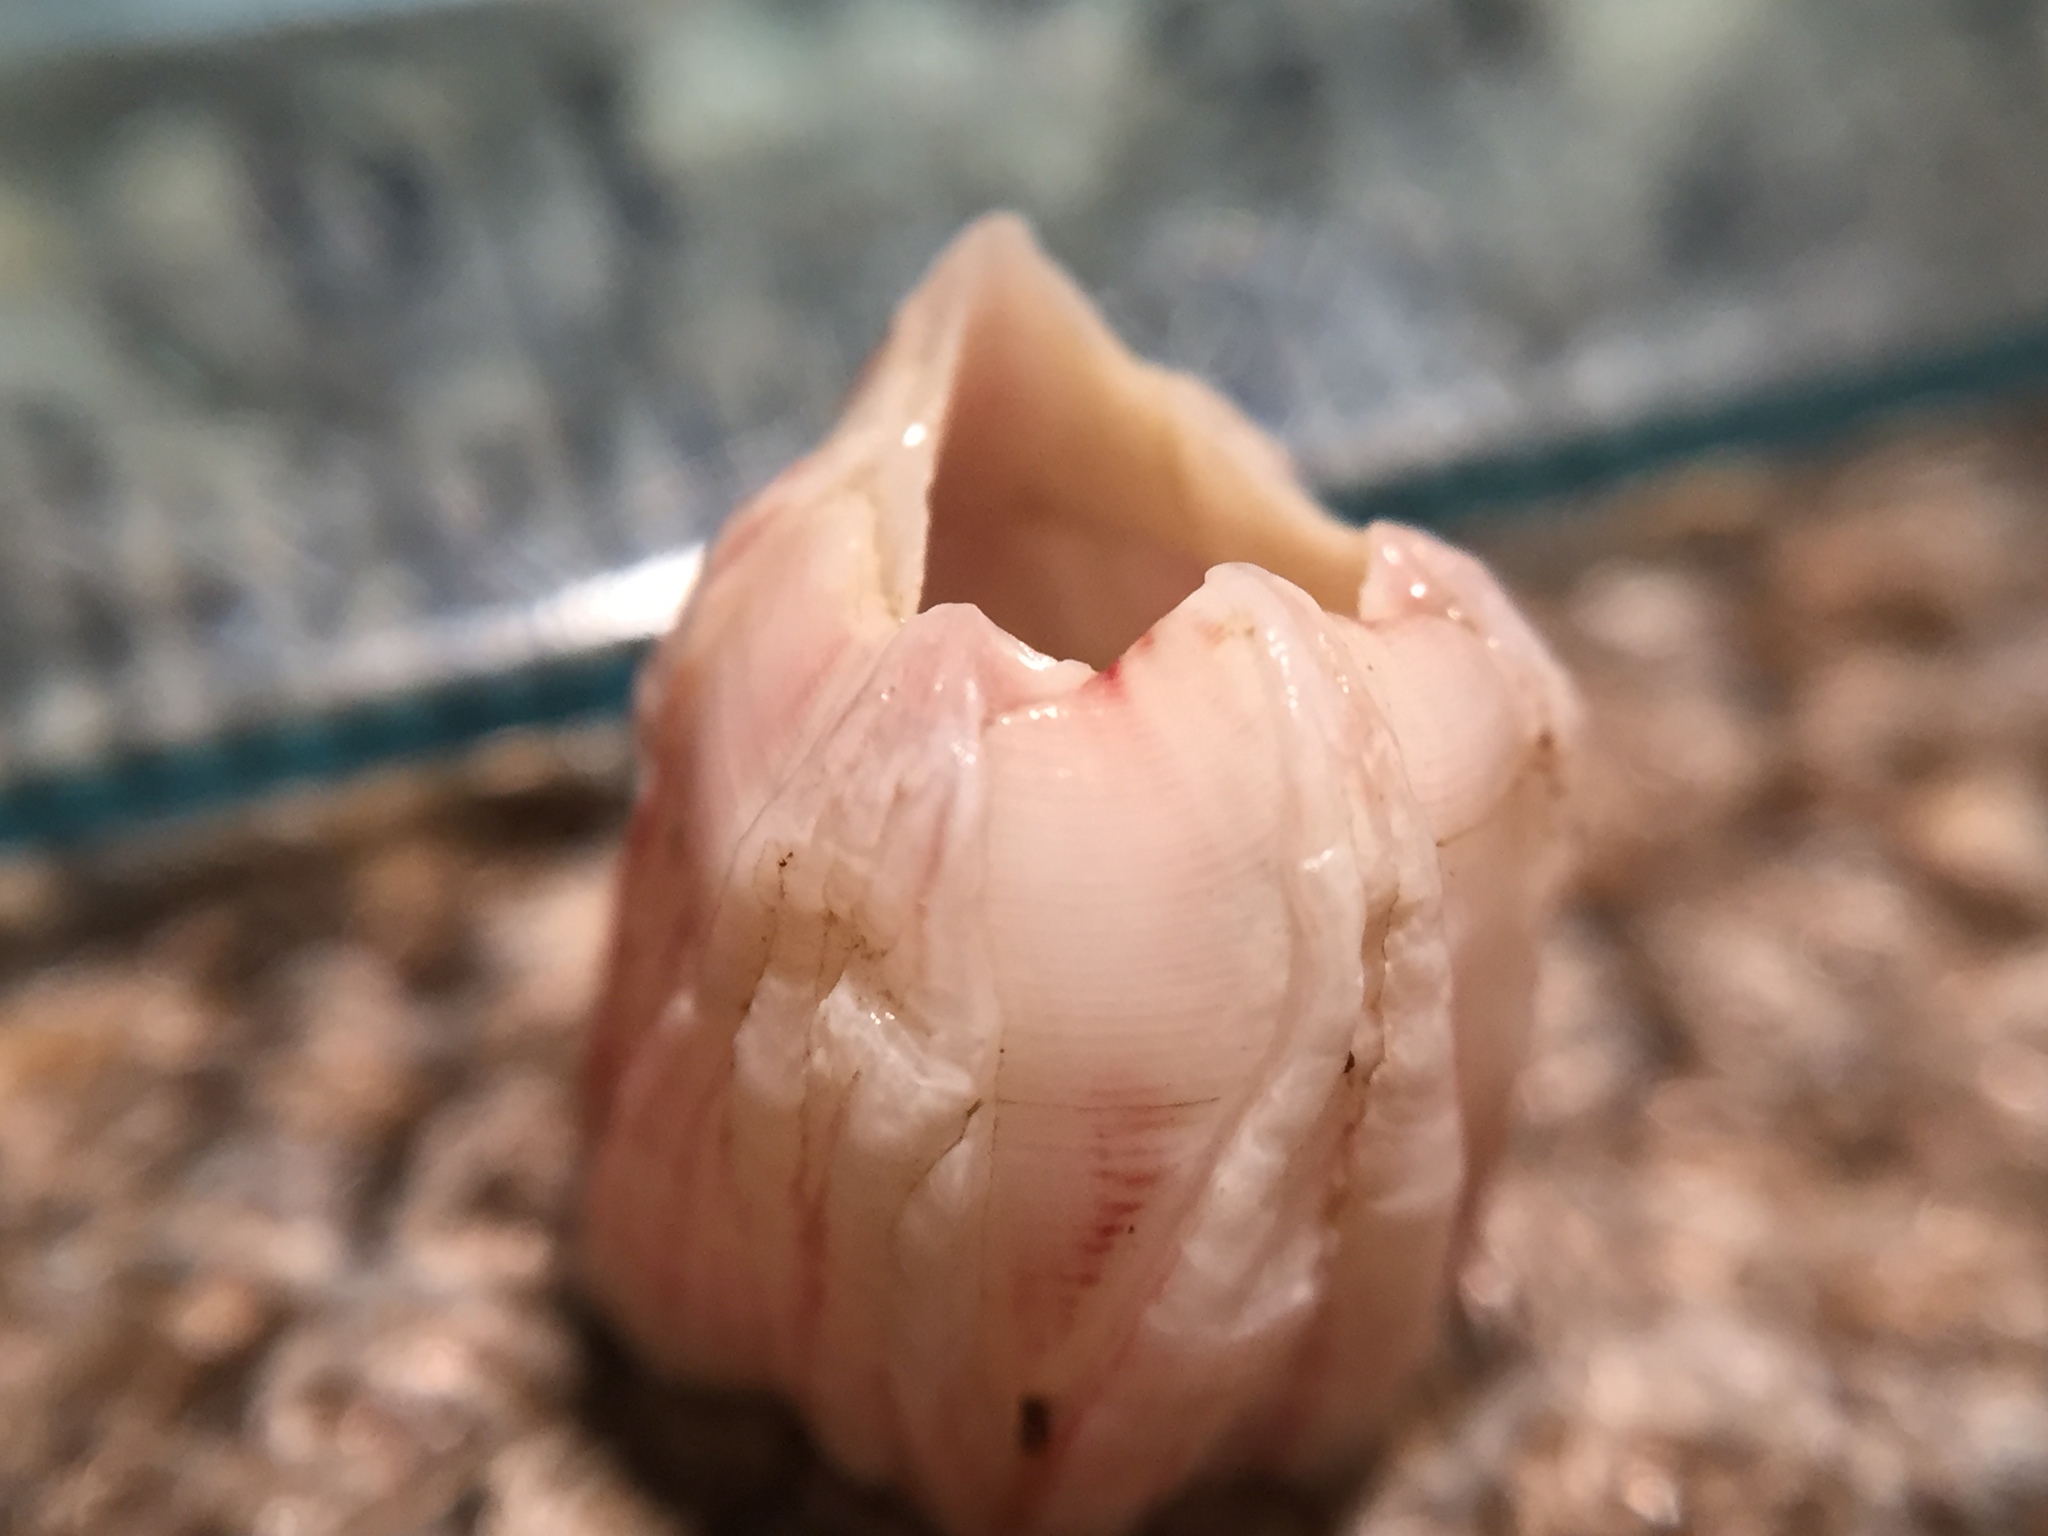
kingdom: Animalia
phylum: Arthropoda
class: Maxillopoda
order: Sessilia
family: Balanidae
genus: Notomegabalanus
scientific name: Notomegabalanus decorus
